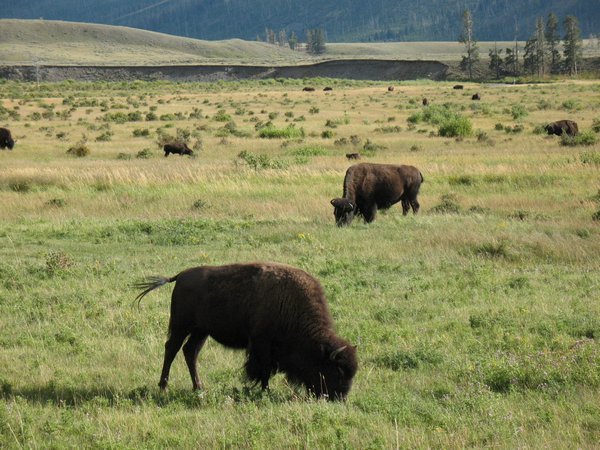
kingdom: Animalia
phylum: Chordata
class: Mammalia
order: Artiodactyla
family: Bovidae
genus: Bison
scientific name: Bison bison
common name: American bison
